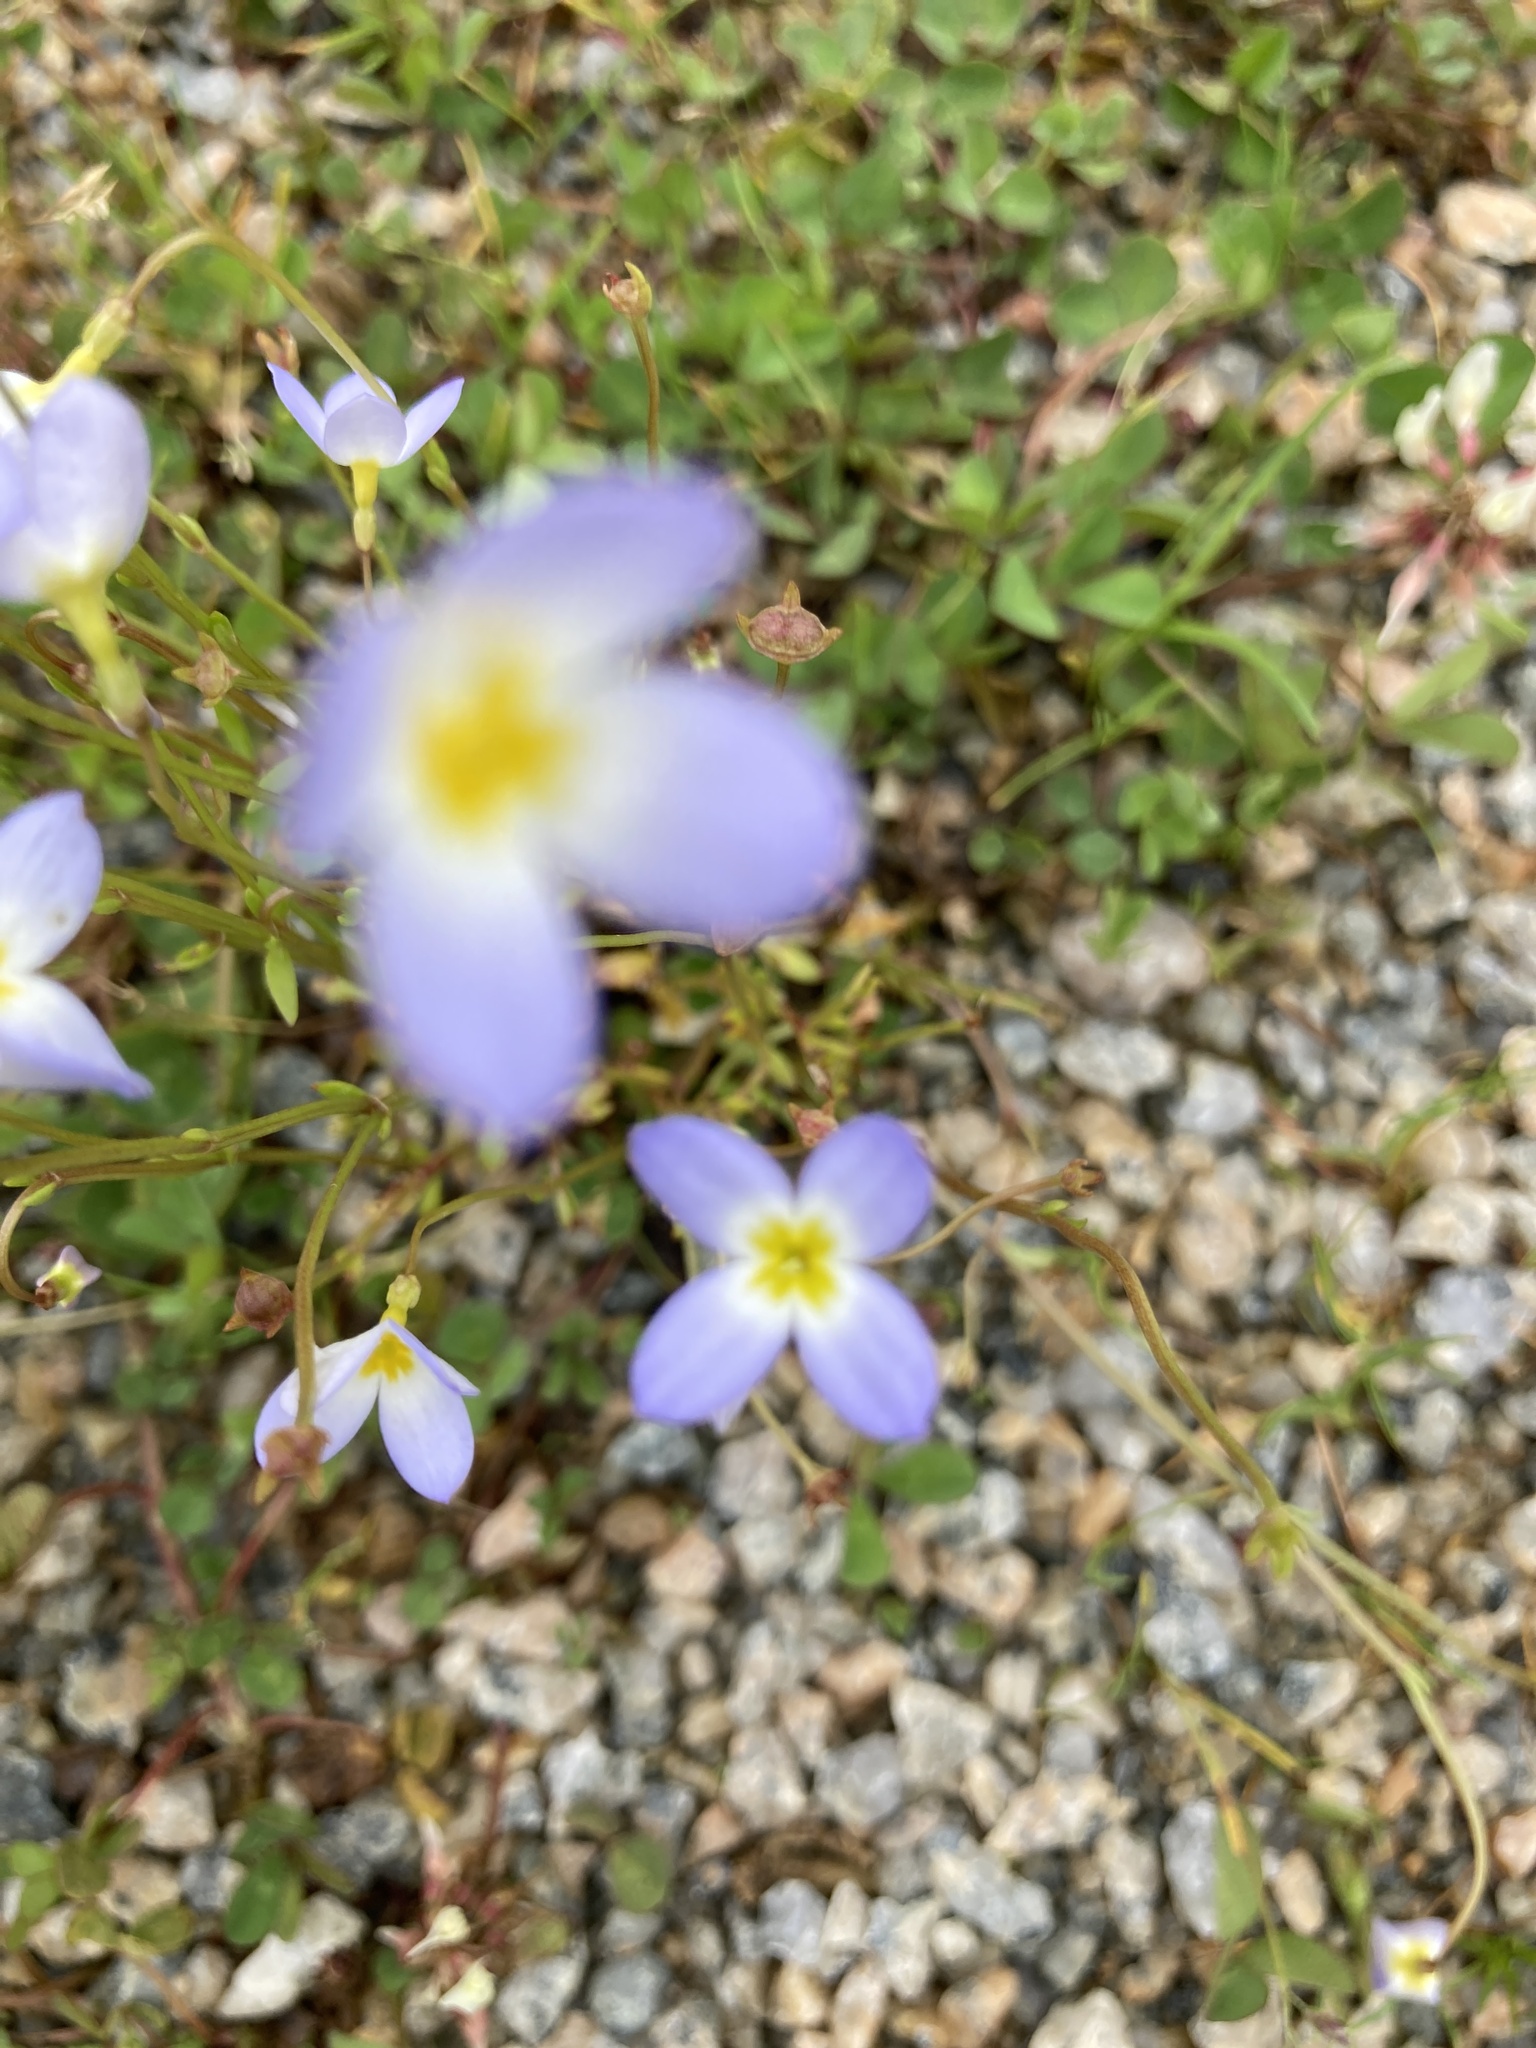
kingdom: Plantae
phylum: Tracheophyta
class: Magnoliopsida
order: Gentianales
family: Rubiaceae
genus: Houstonia
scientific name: Houstonia caerulea
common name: Bluets
